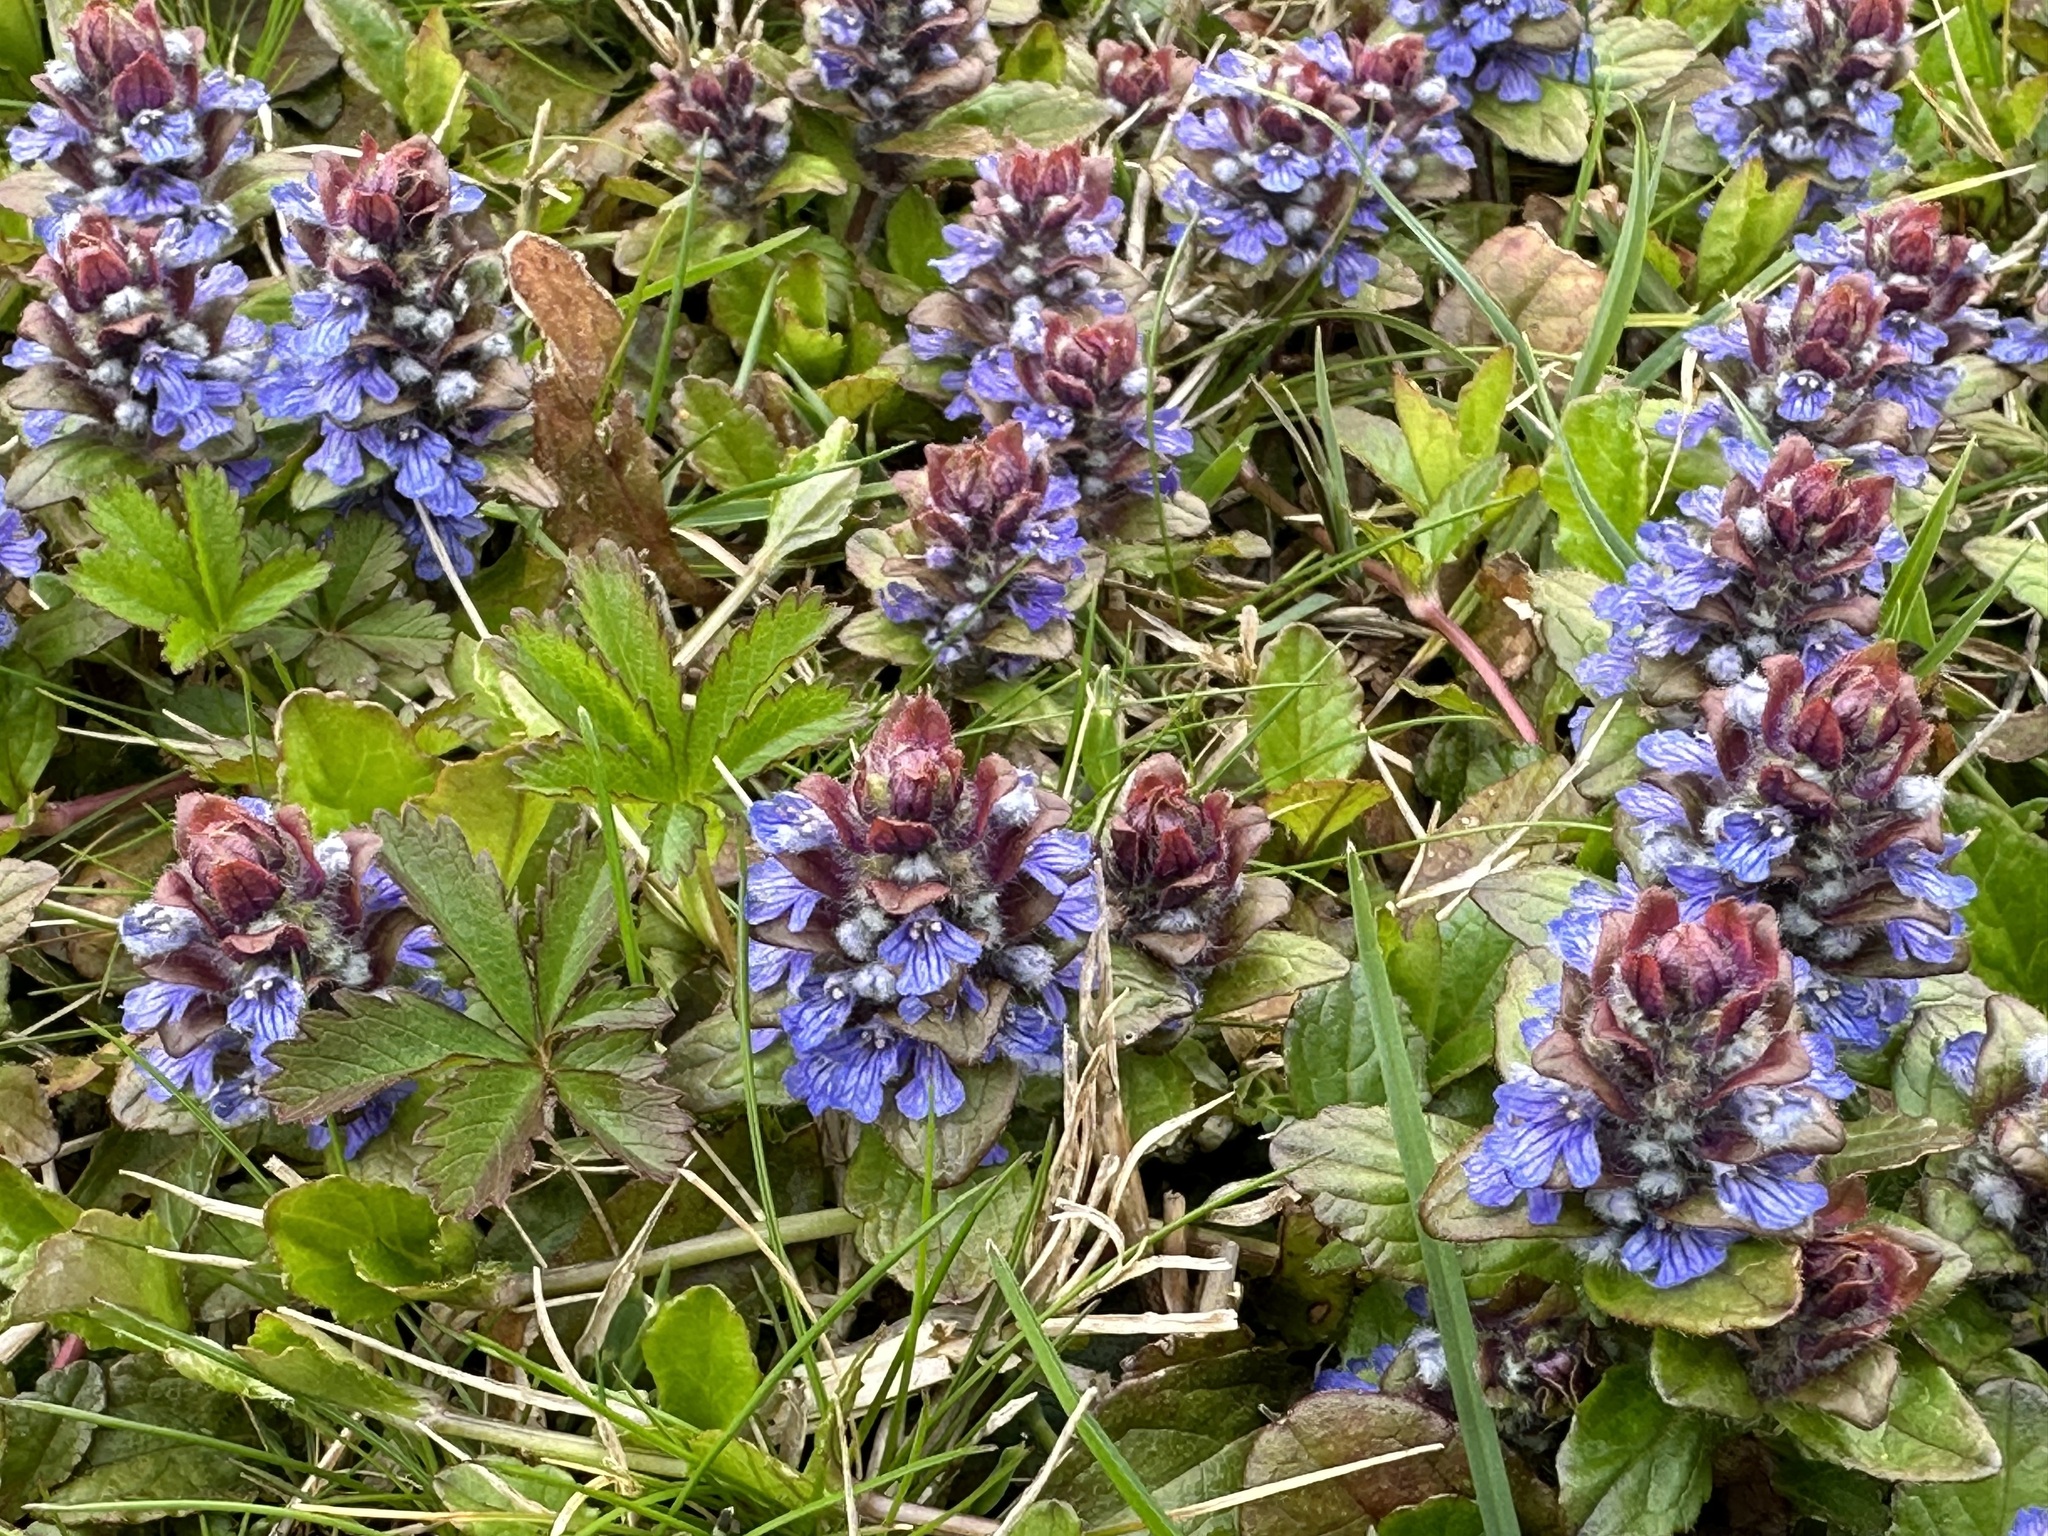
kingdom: Plantae
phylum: Tracheophyta
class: Magnoliopsida
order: Lamiales
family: Lamiaceae
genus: Ajuga
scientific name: Ajuga reptans
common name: Bugle
